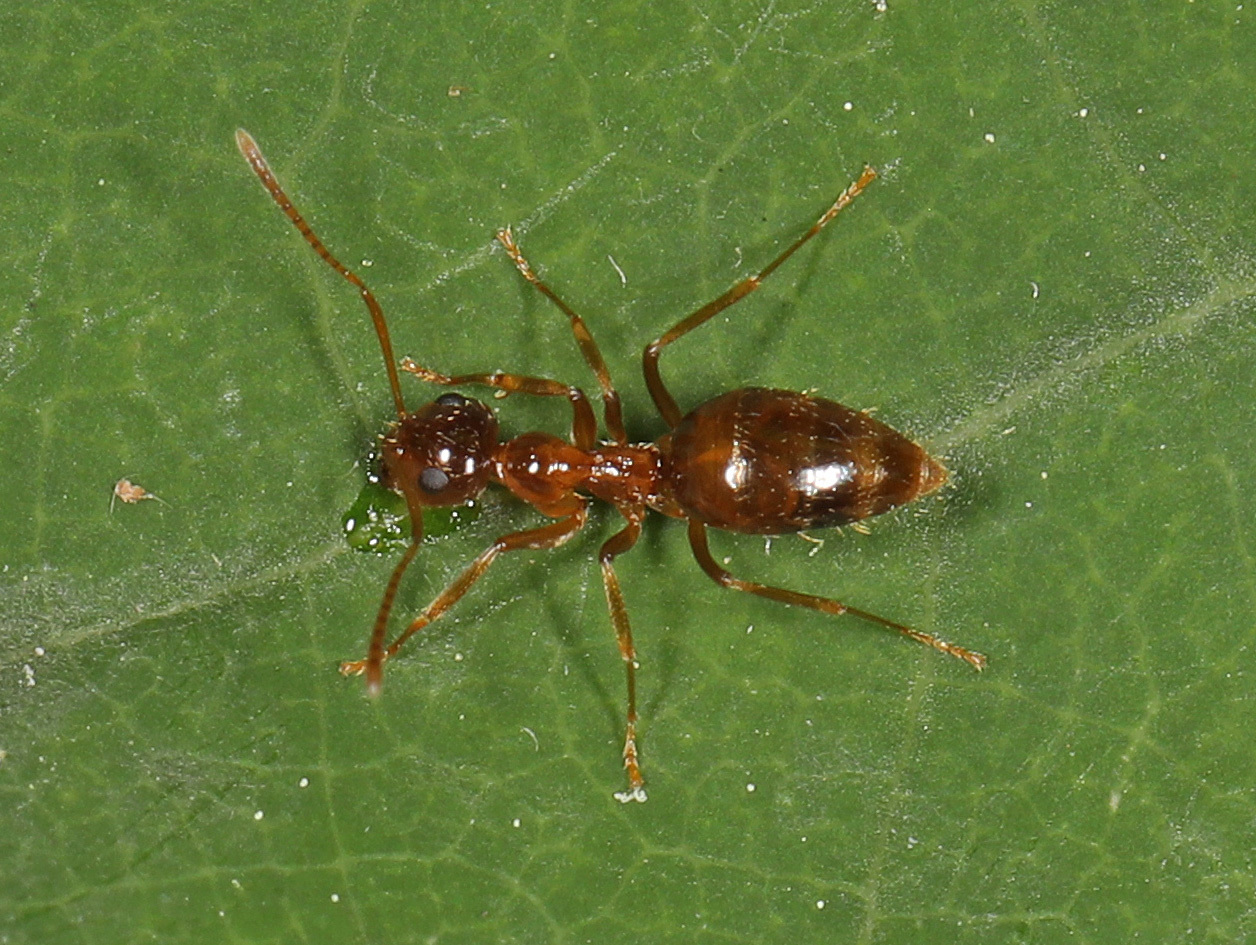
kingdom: Animalia
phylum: Arthropoda
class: Insecta
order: Hymenoptera
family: Formicidae
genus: Prenolepis
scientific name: Prenolepis imparis
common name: Small honey ant
